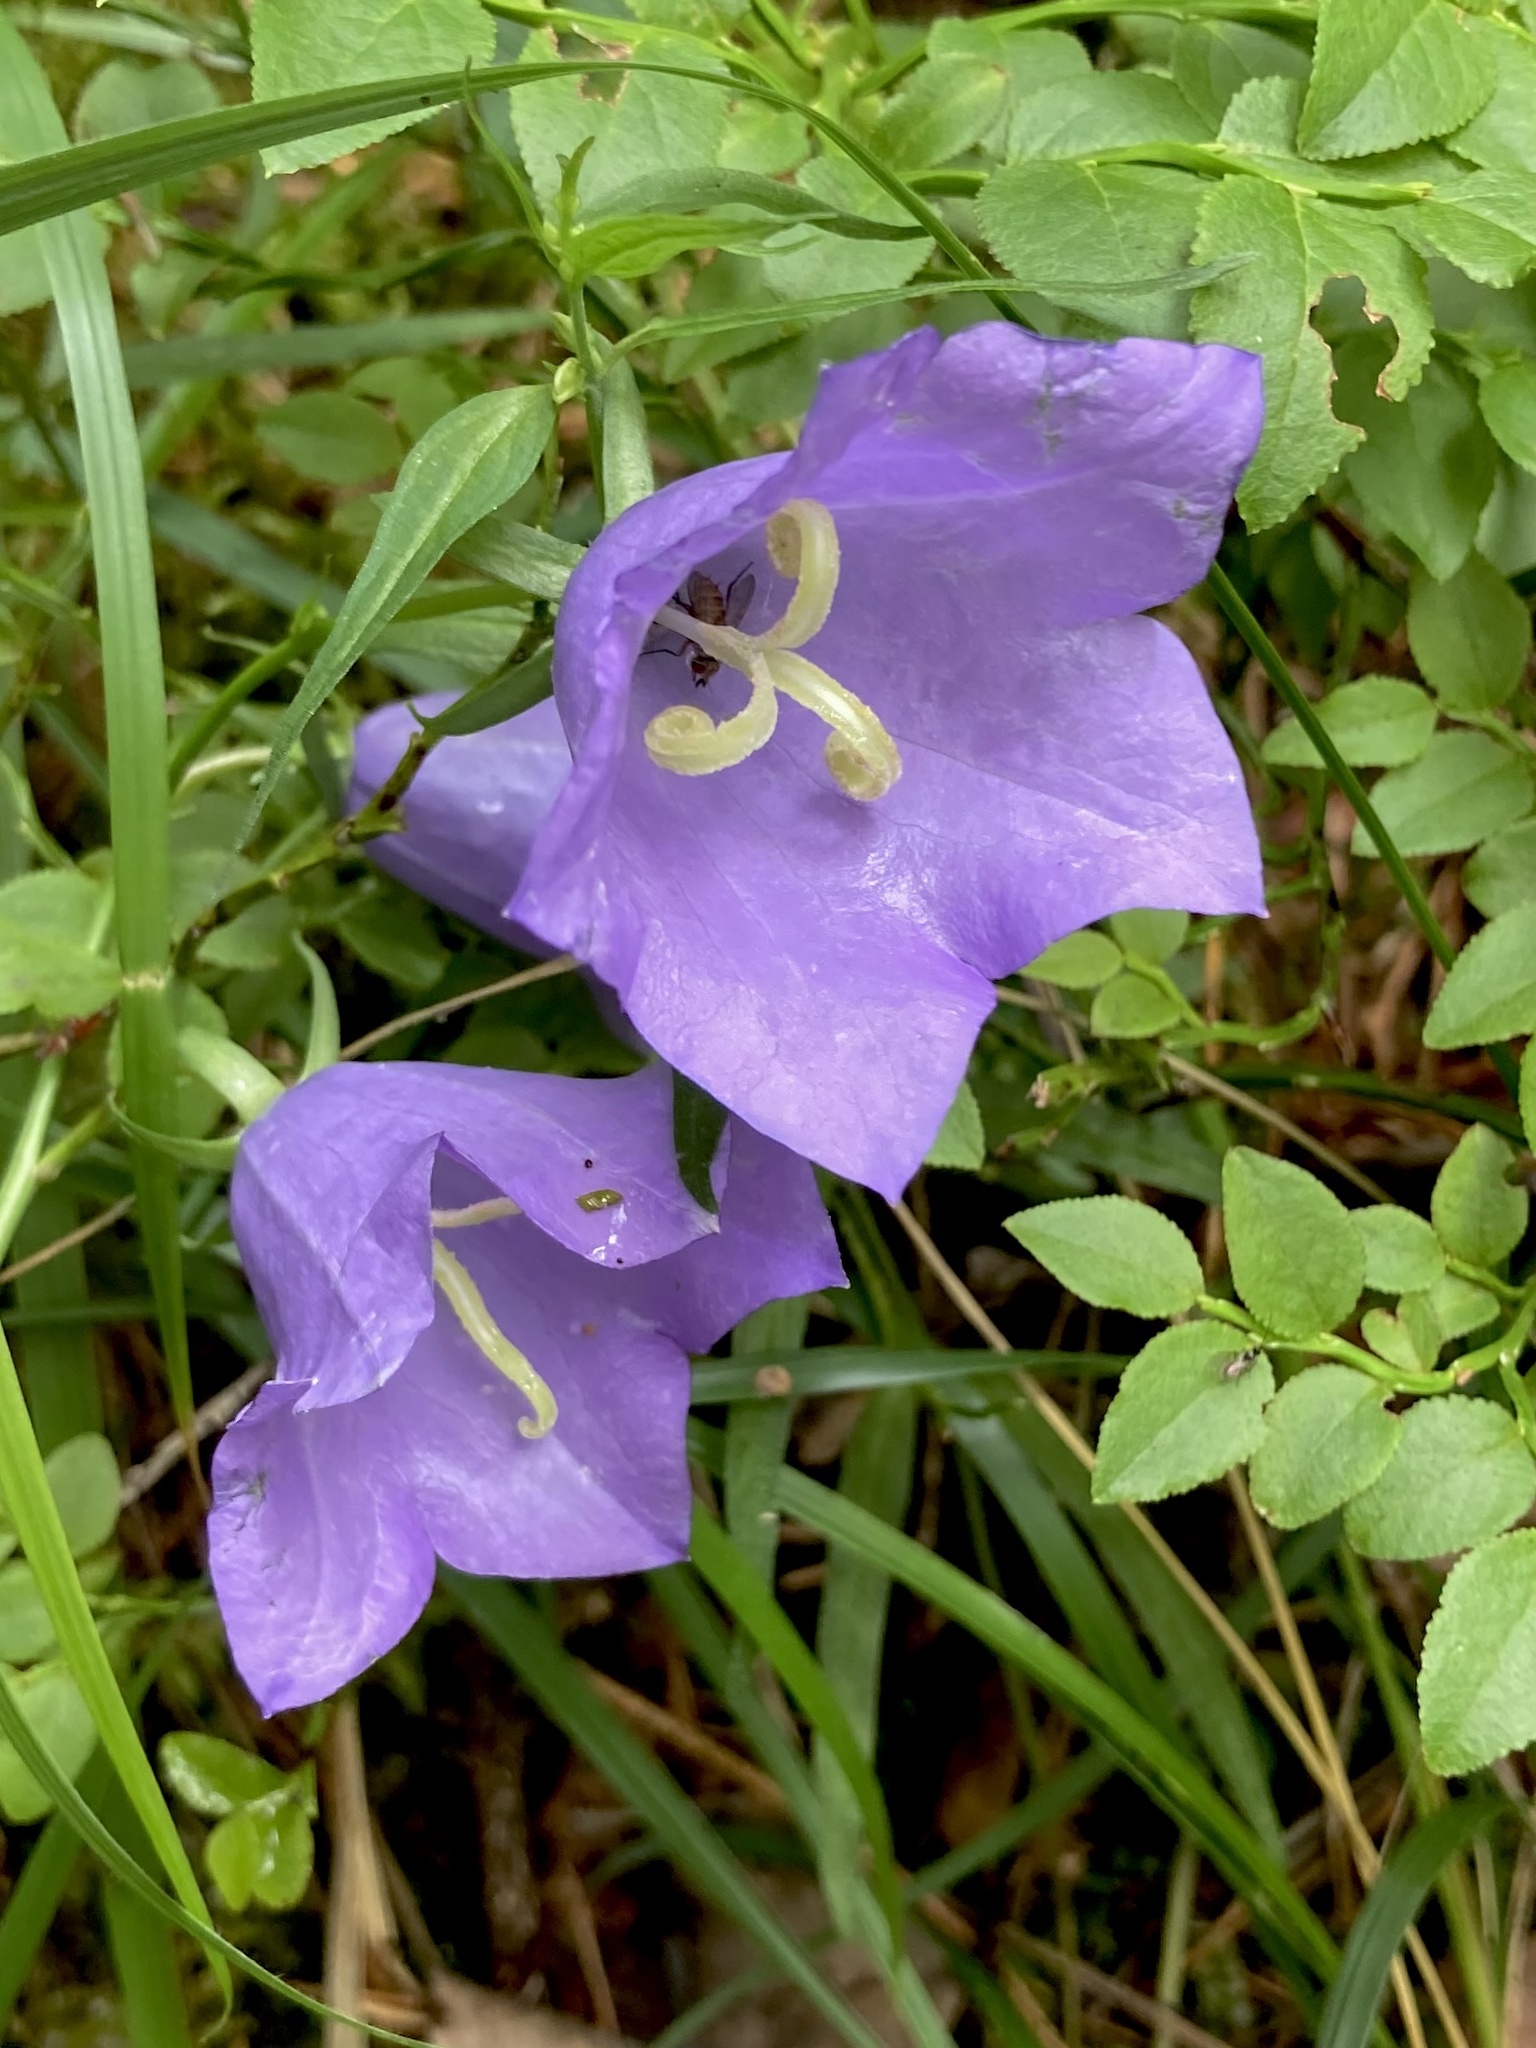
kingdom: Plantae
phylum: Tracheophyta
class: Magnoliopsida
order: Asterales
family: Campanulaceae
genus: Campanula
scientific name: Campanula persicifolia
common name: Peach-leaved bellflower
